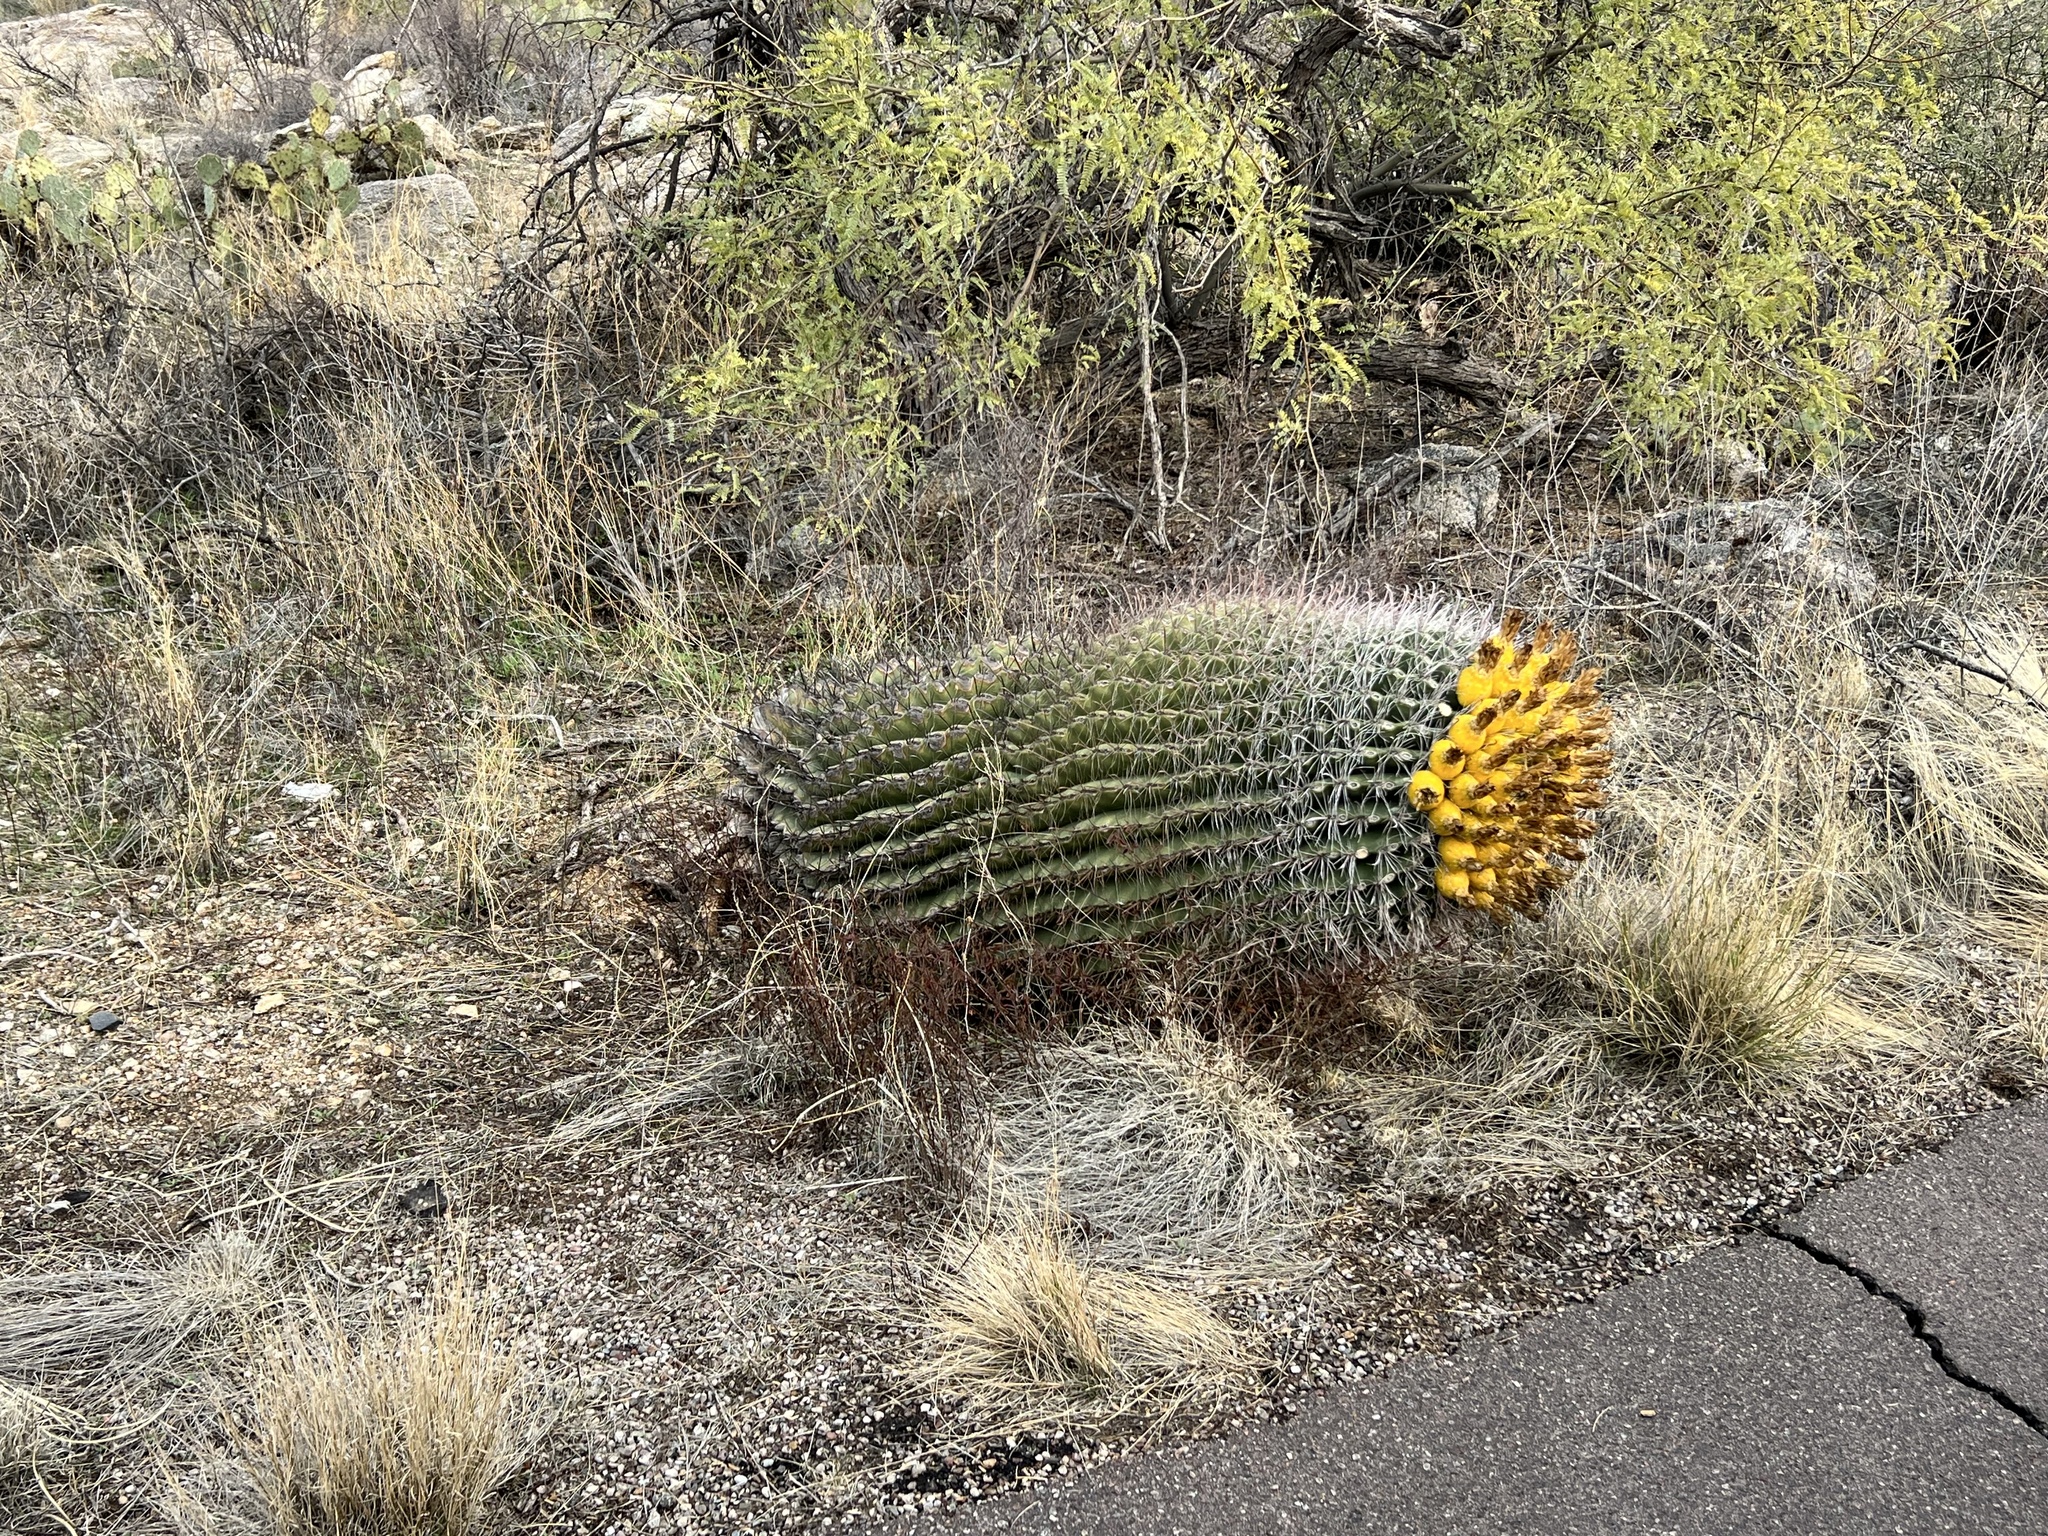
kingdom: Plantae
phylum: Tracheophyta
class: Magnoliopsida
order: Caryophyllales
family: Cactaceae
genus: Ferocactus
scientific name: Ferocactus wislizeni
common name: Candy barrel cactus
